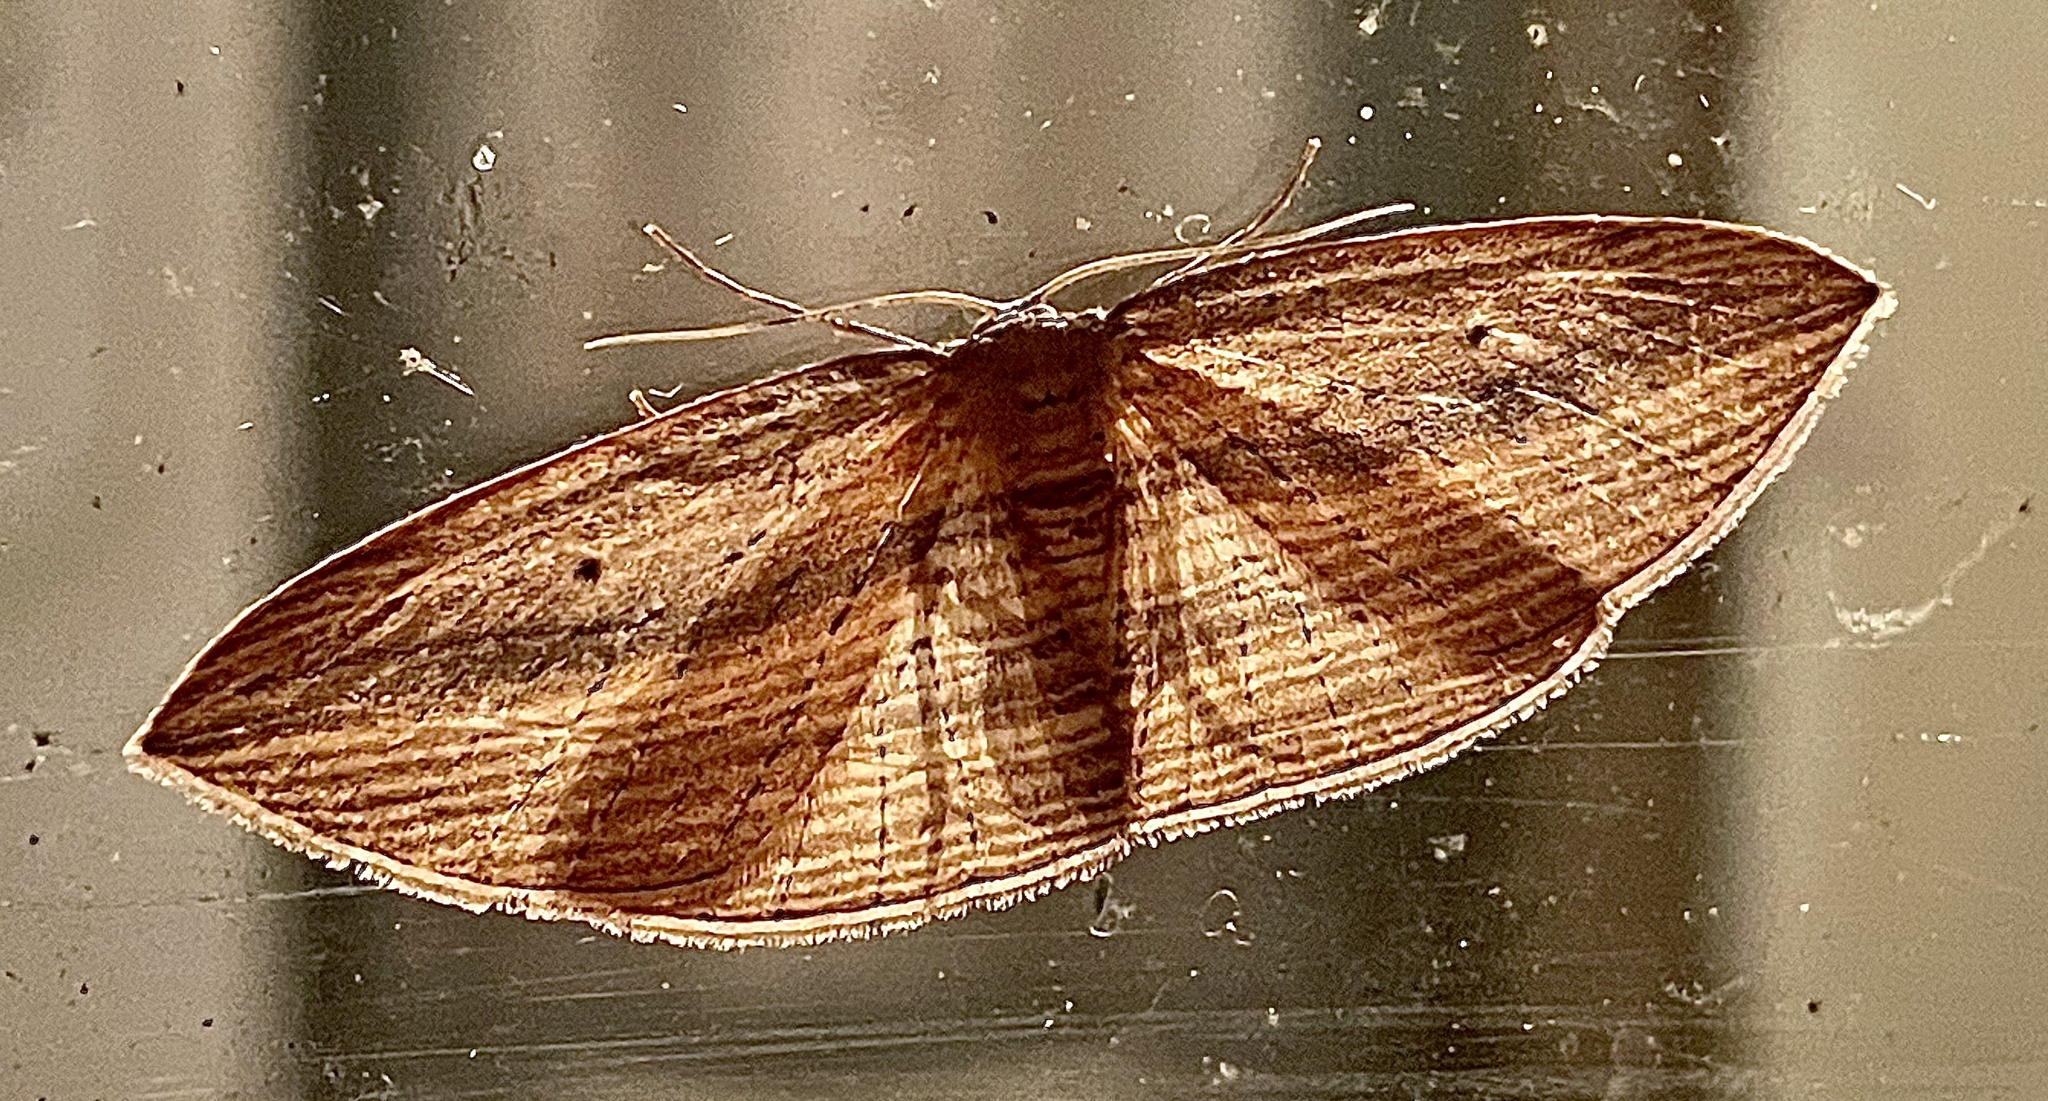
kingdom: Animalia
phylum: Arthropoda
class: Insecta
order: Lepidoptera
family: Geometridae
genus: Epiphryne
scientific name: Epiphryne verriculata
